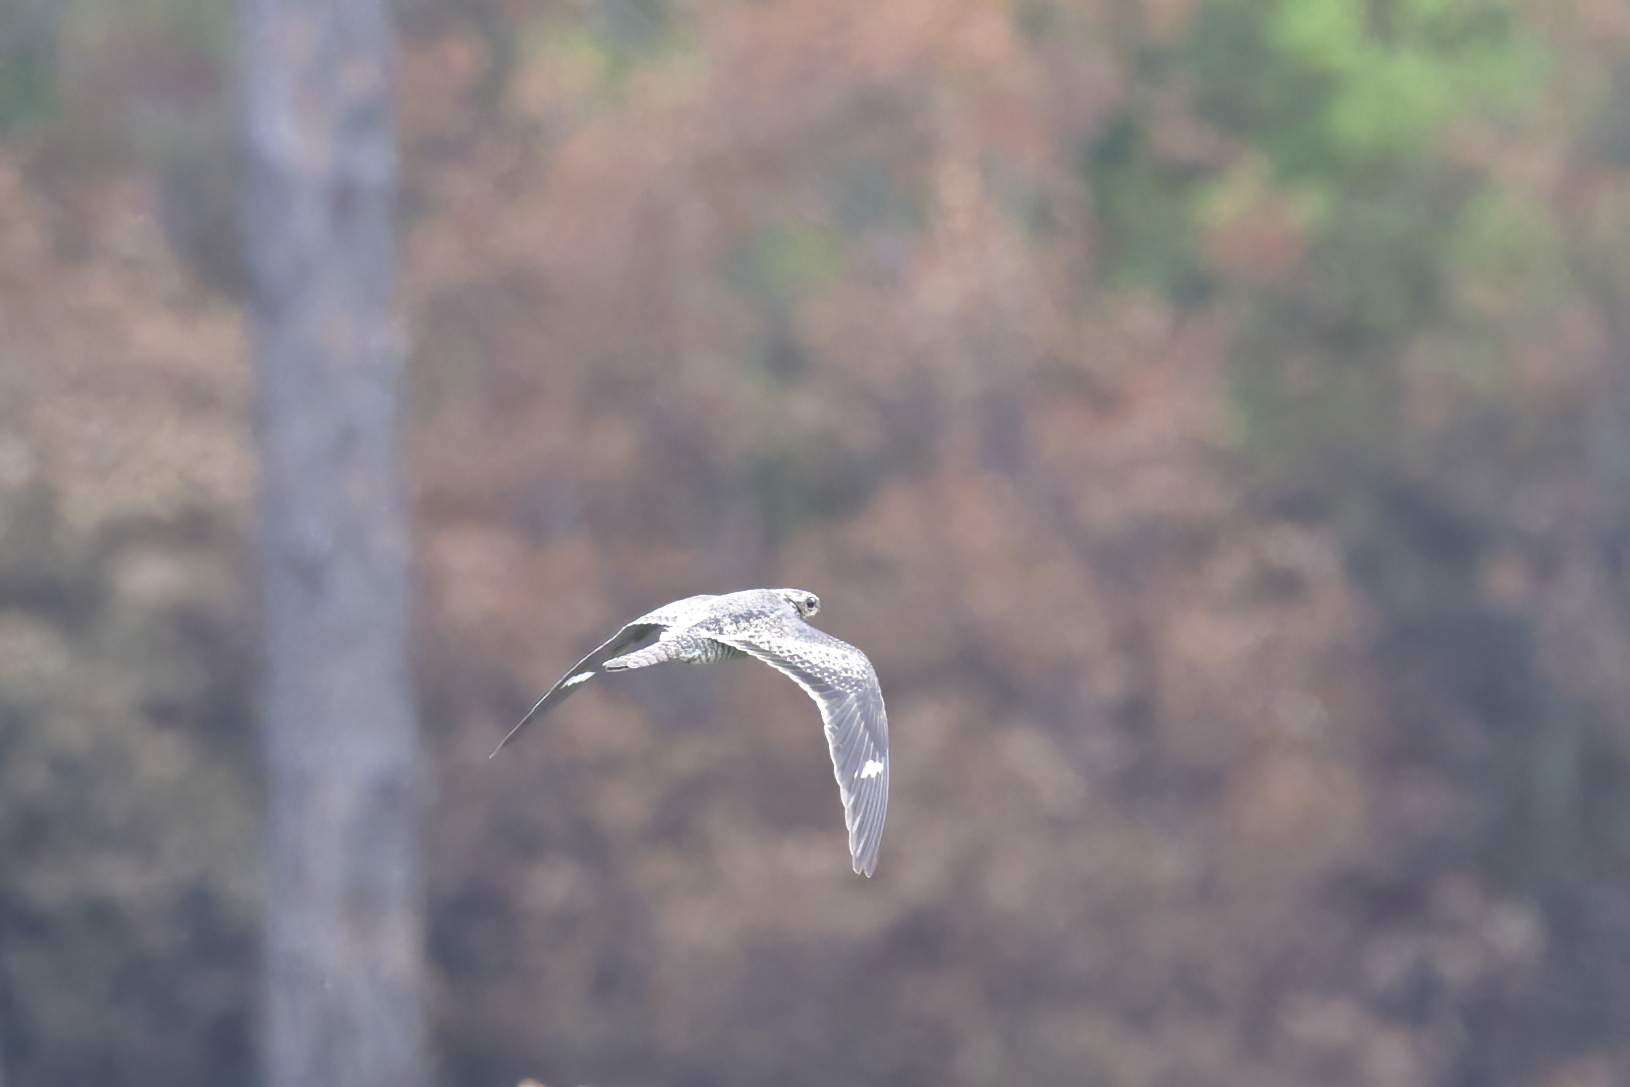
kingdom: Animalia
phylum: Chordata
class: Aves
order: Caprimulgiformes
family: Caprimulgidae
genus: Chordeiles
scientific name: Chordeiles minor
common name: Common nighthawk
